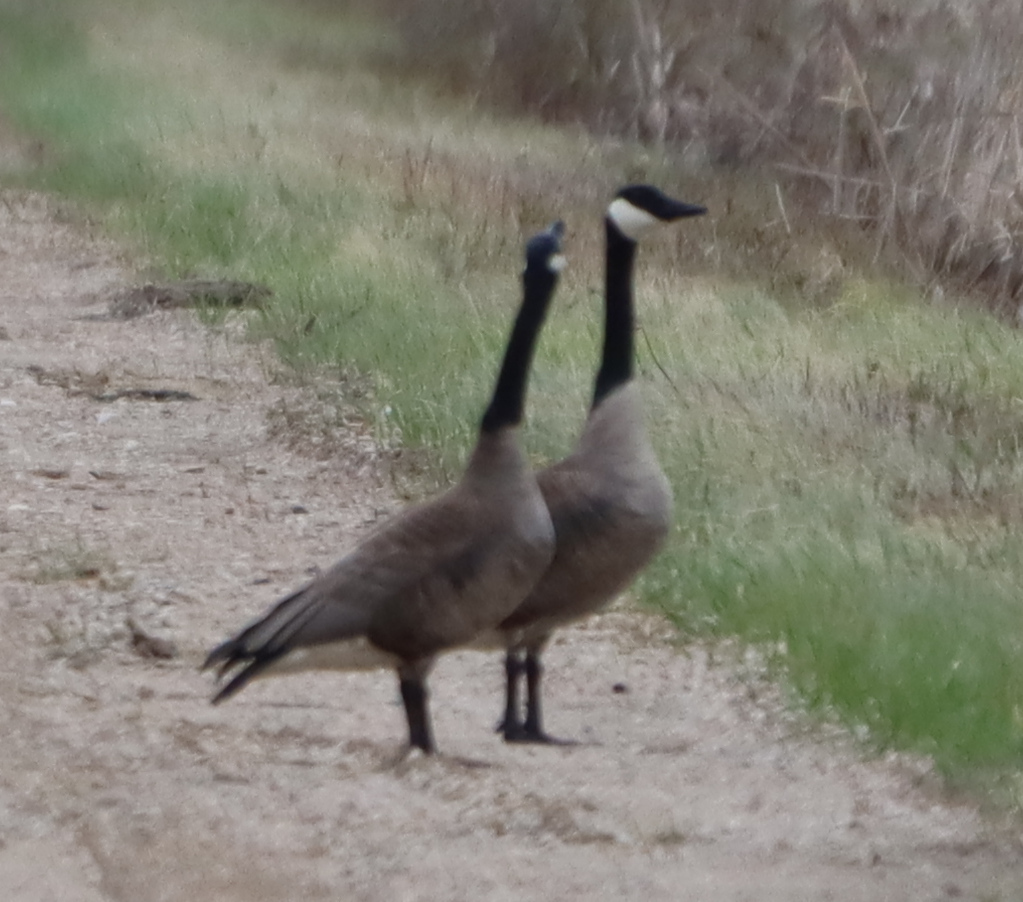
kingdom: Animalia
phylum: Chordata
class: Aves
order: Anseriformes
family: Anatidae
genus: Branta
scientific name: Branta canadensis
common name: Canada goose
